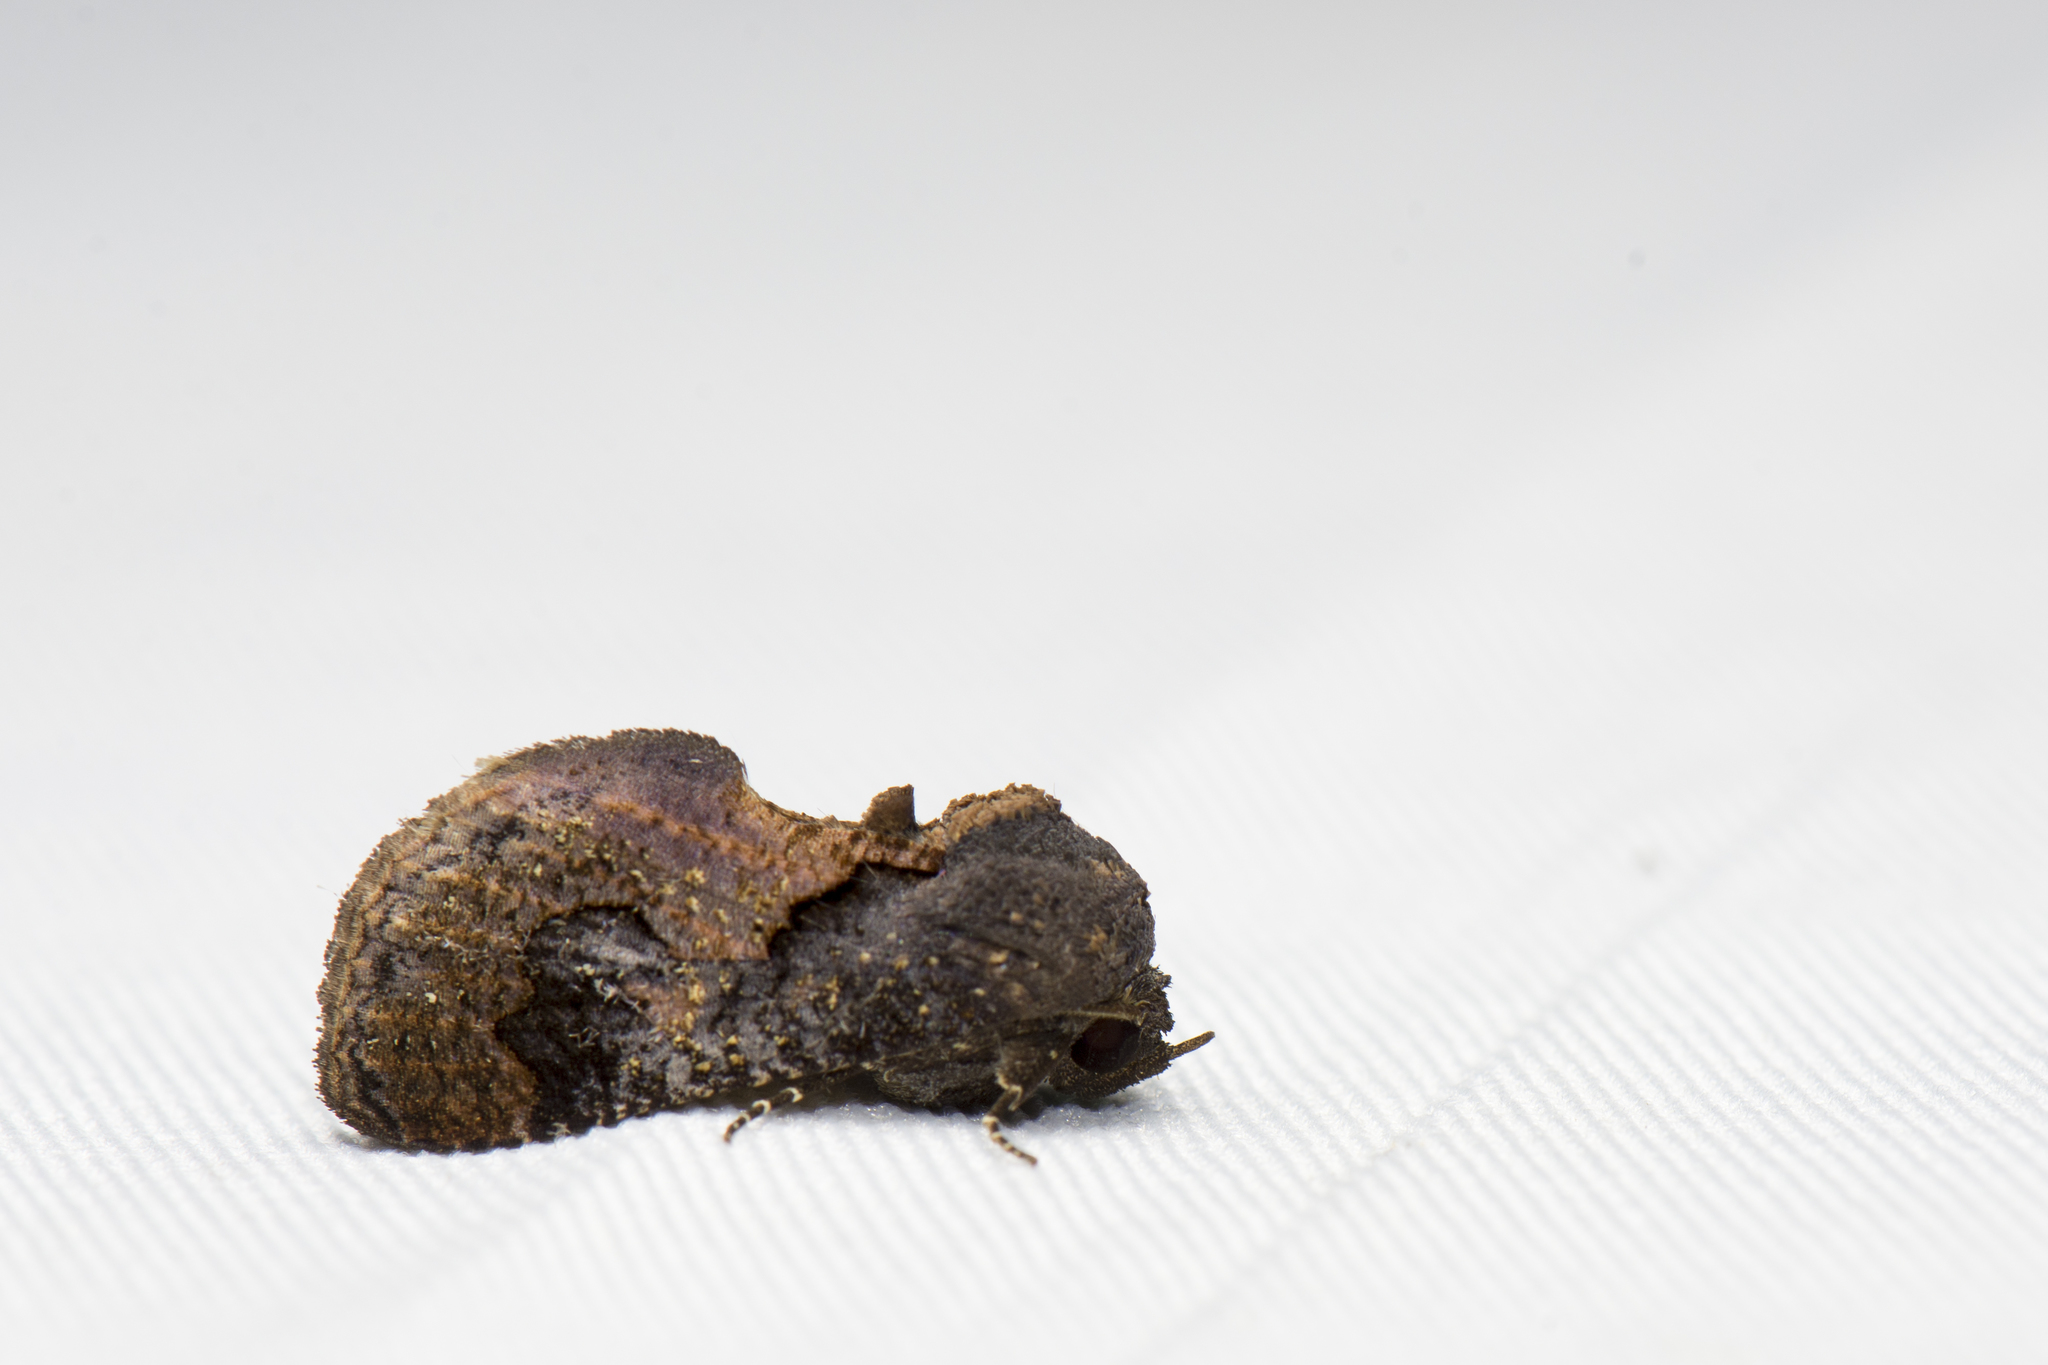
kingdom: Animalia
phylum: Arthropoda
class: Insecta
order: Lepidoptera
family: Erebidae
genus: Batracharta
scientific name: Batracharta divisa
